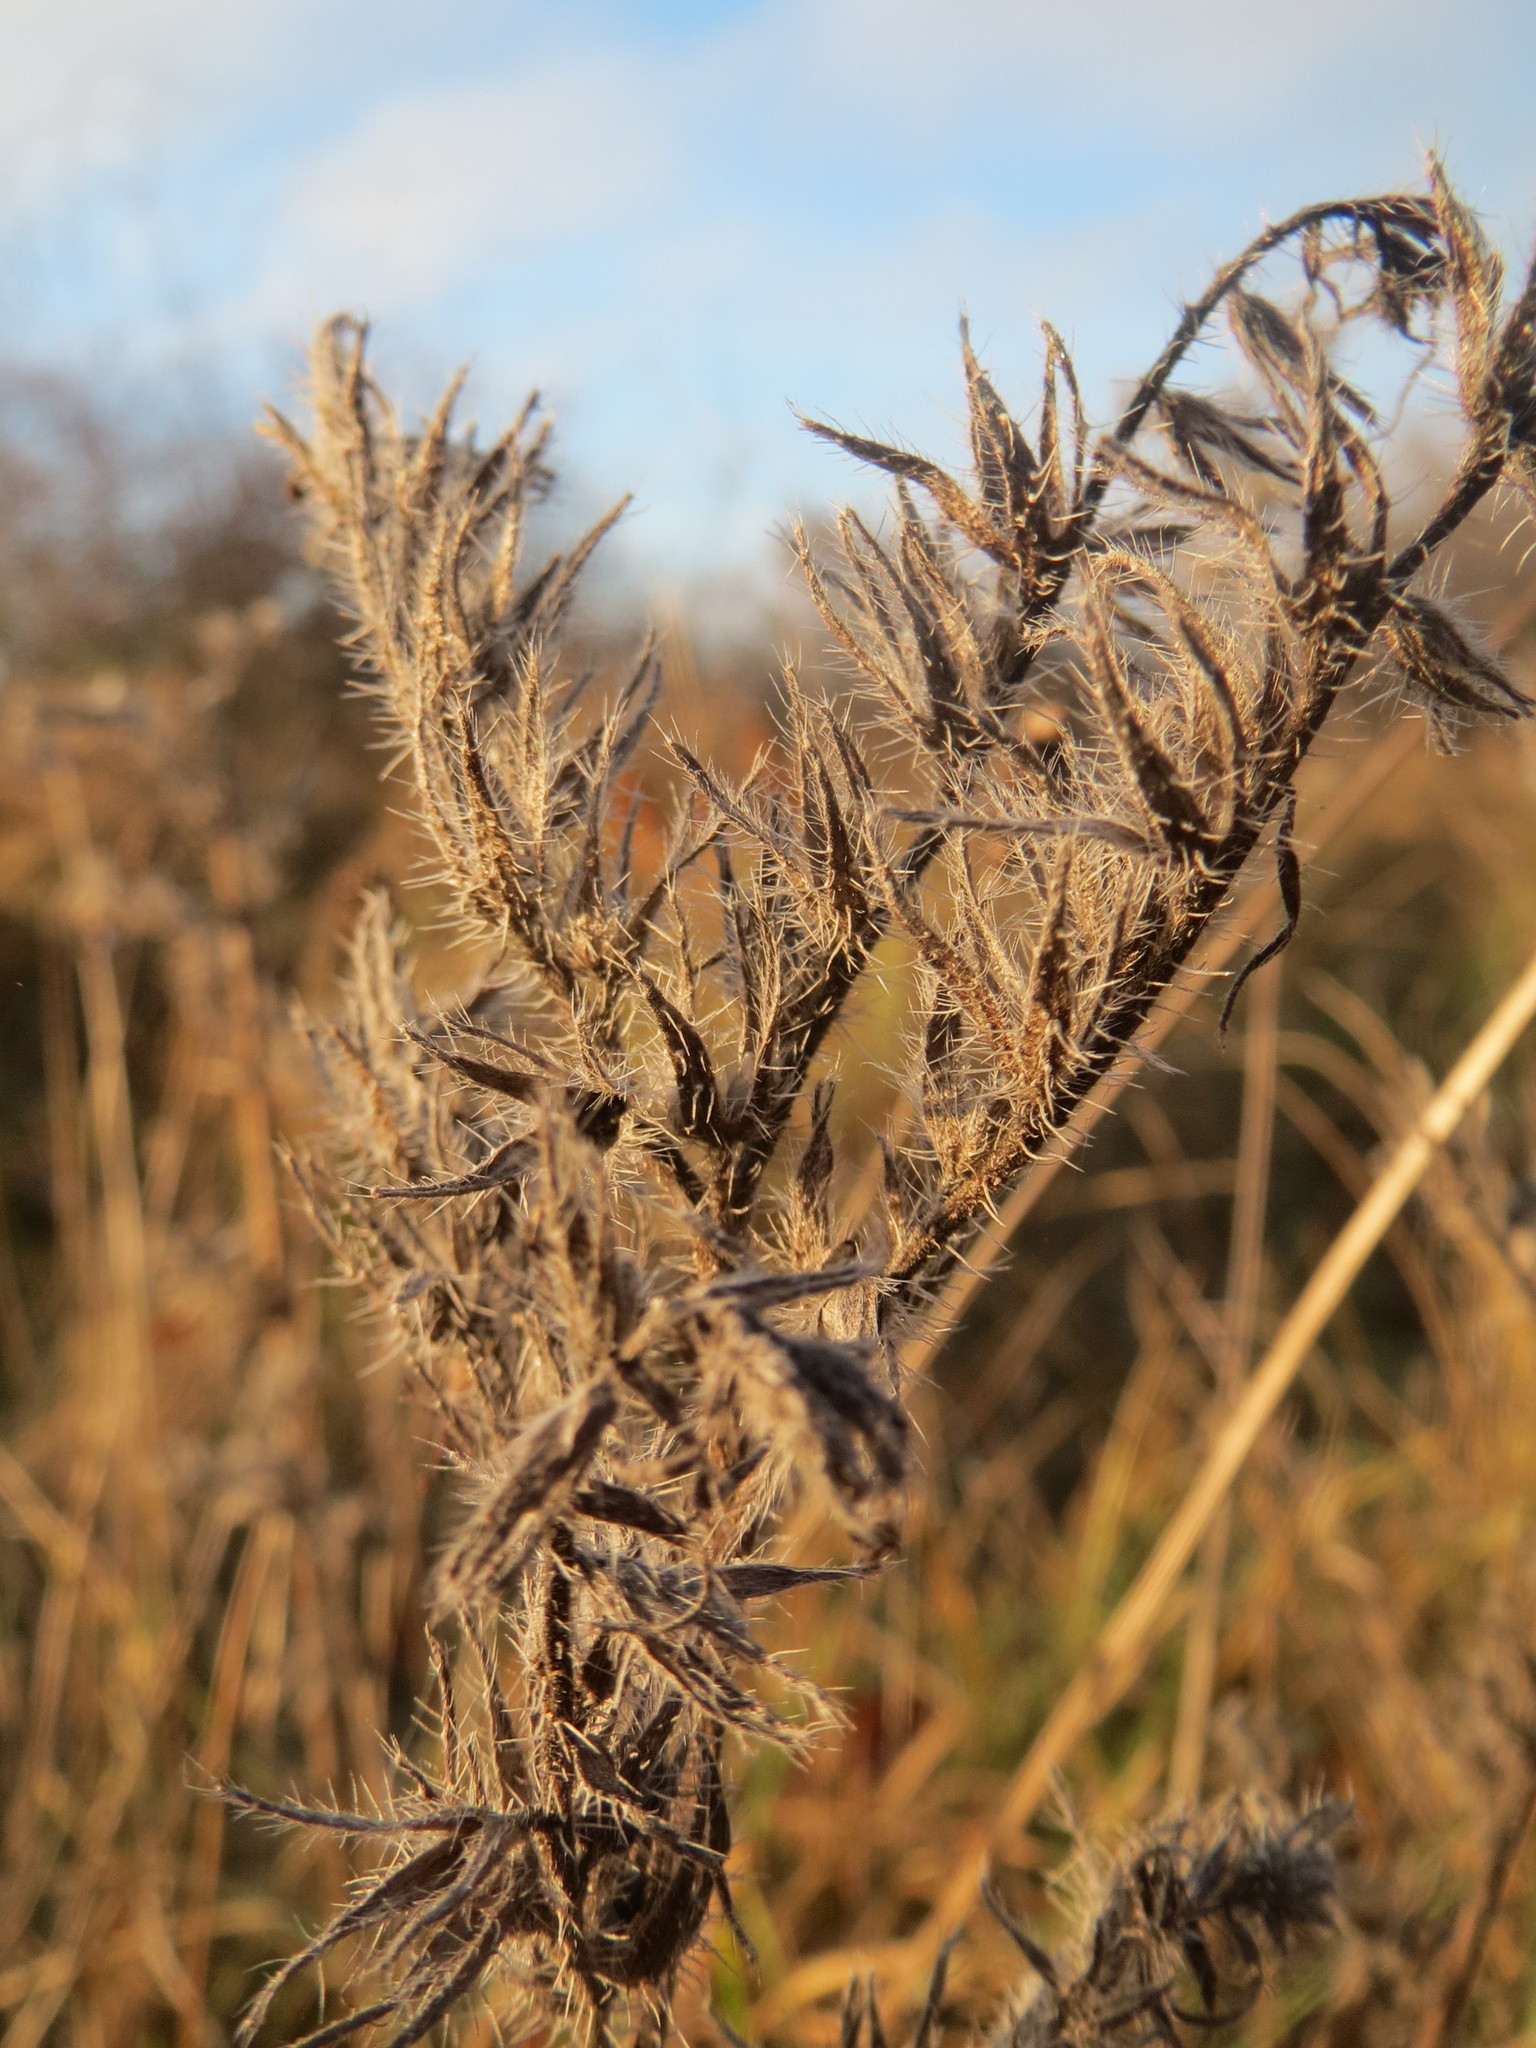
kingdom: Plantae
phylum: Tracheophyta
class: Magnoliopsida
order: Boraginales
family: Boraginaceae
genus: Echium
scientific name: Echium vulgare
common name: Common viper's bugloss
